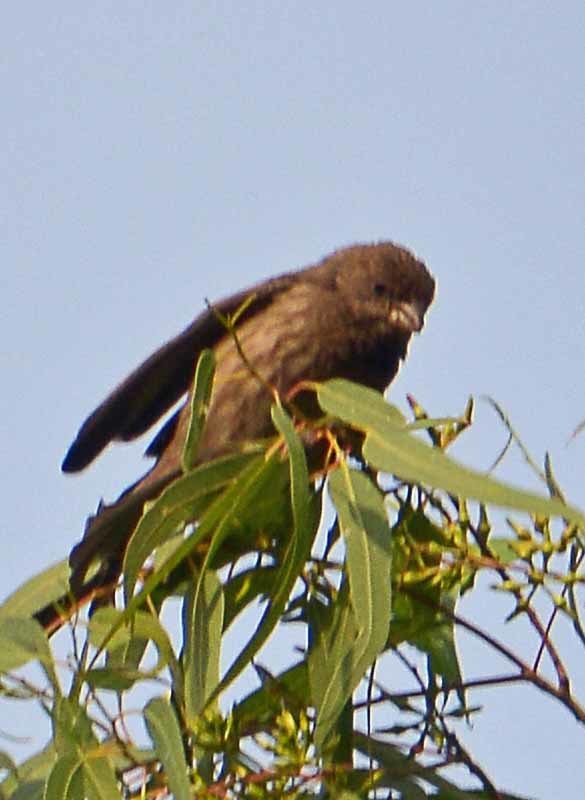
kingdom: Animalia
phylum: Chordata
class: Aves
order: Passeriformes
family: Fringillidae
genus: Haemorhous
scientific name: Haemorhous mexicanus
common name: House finch
